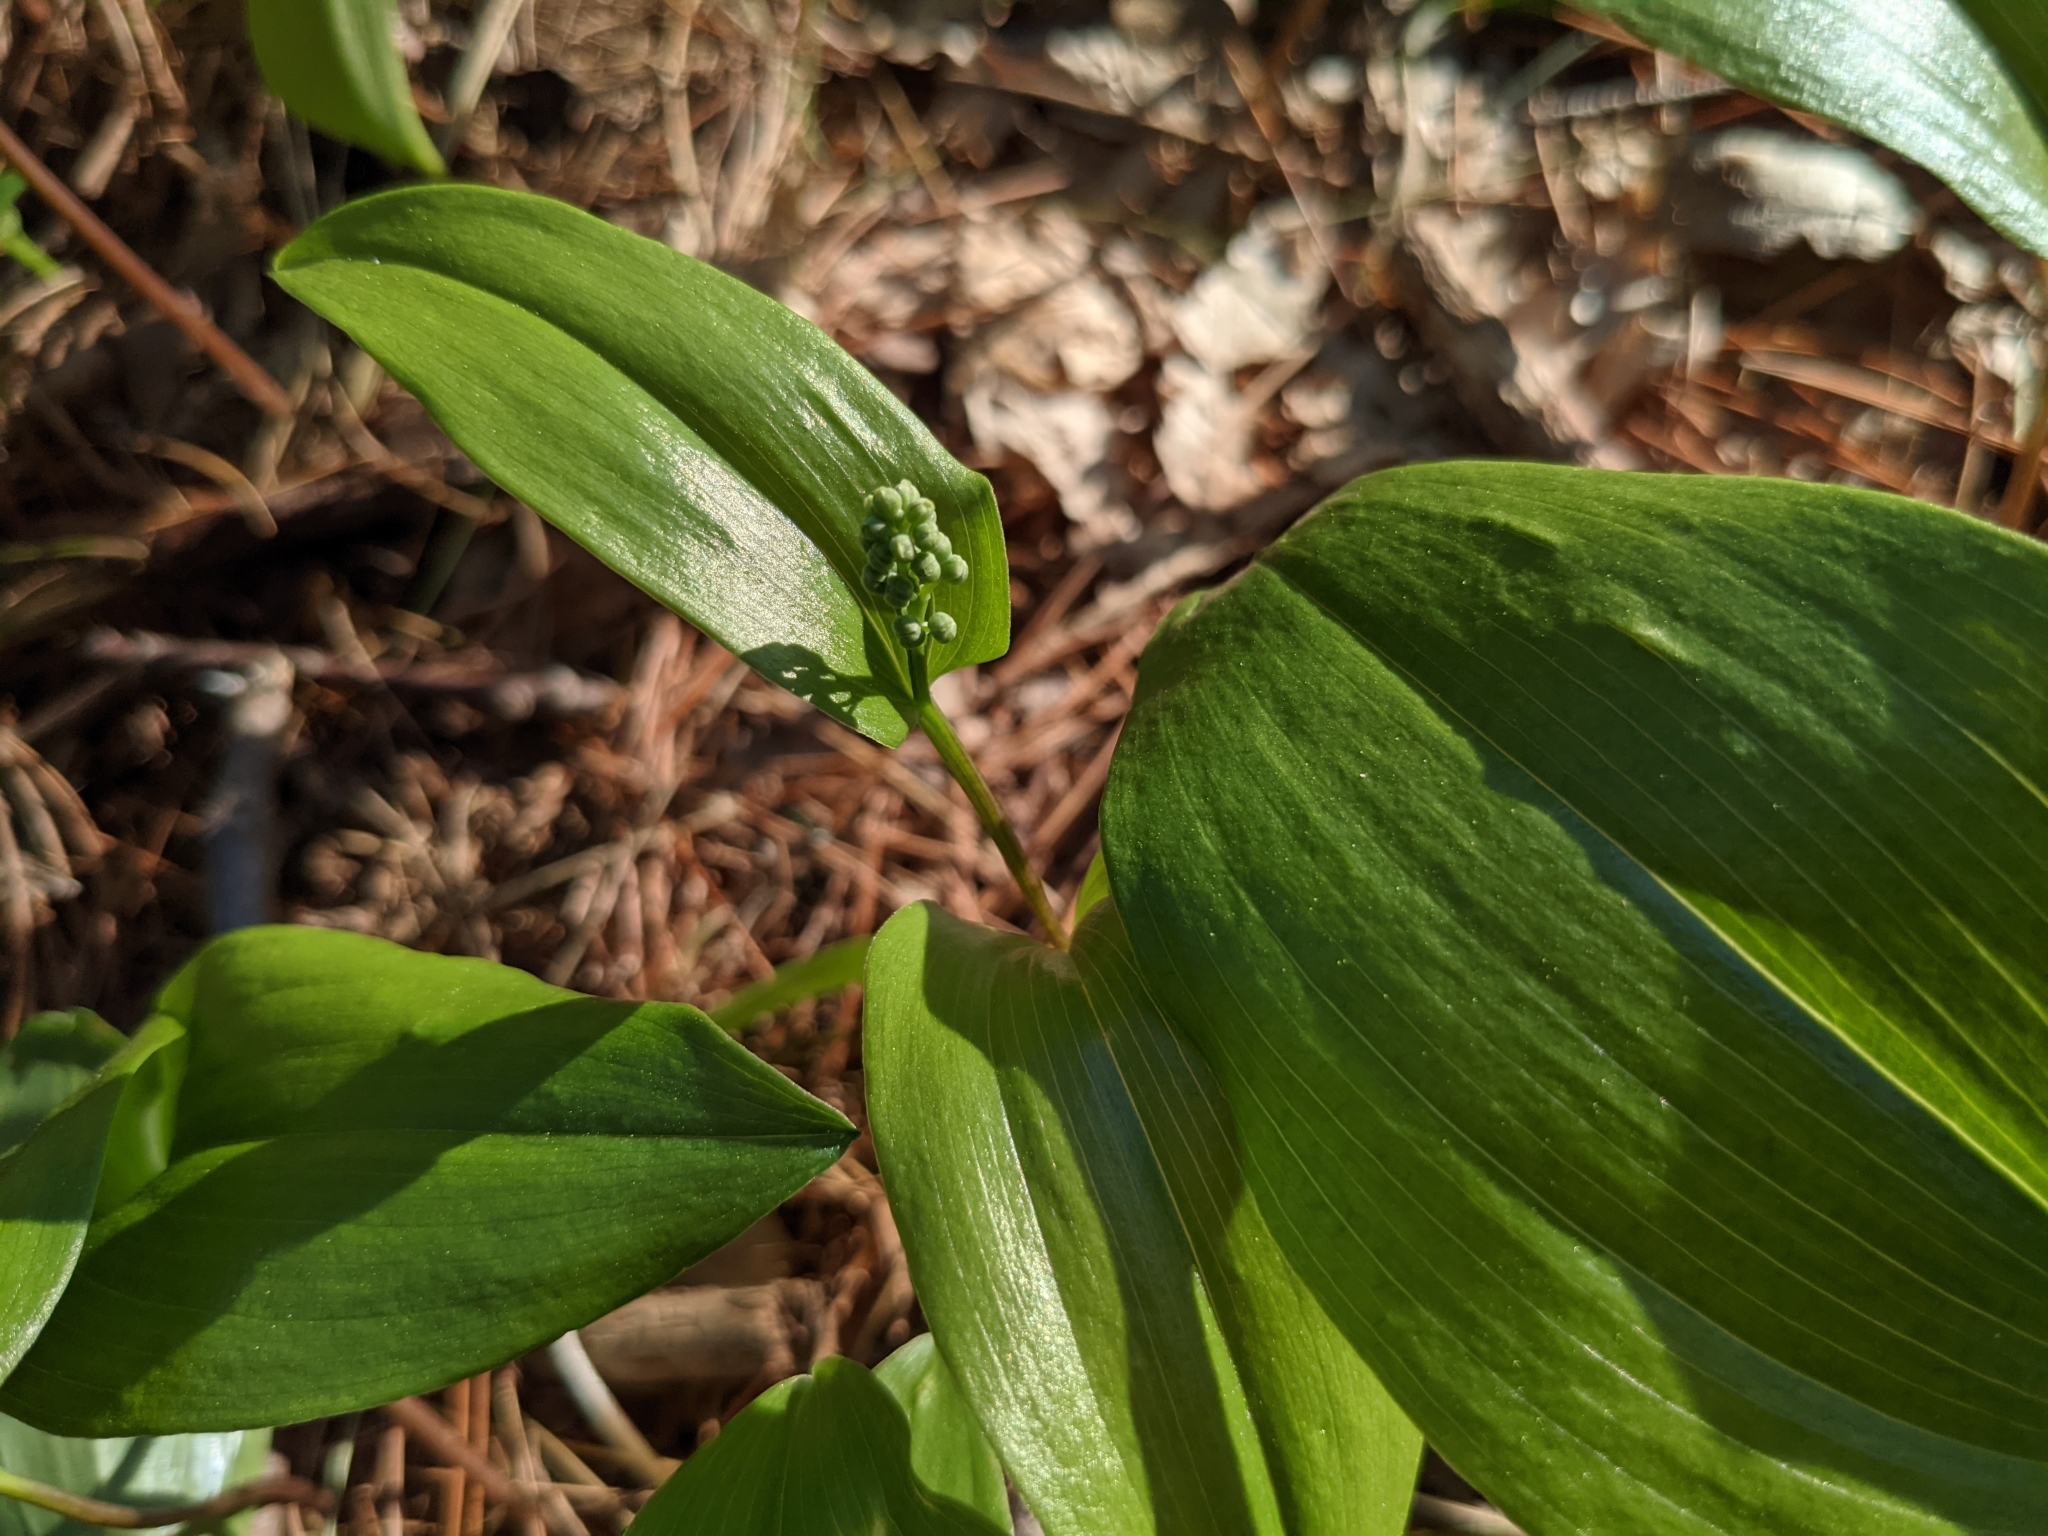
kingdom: Plantae
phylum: Tracheophyta
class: Liliopsida
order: Asparagales
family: Asparagaceae
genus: Maianthemum
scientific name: Maianthemum canadense
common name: False lily-of-the-valley
